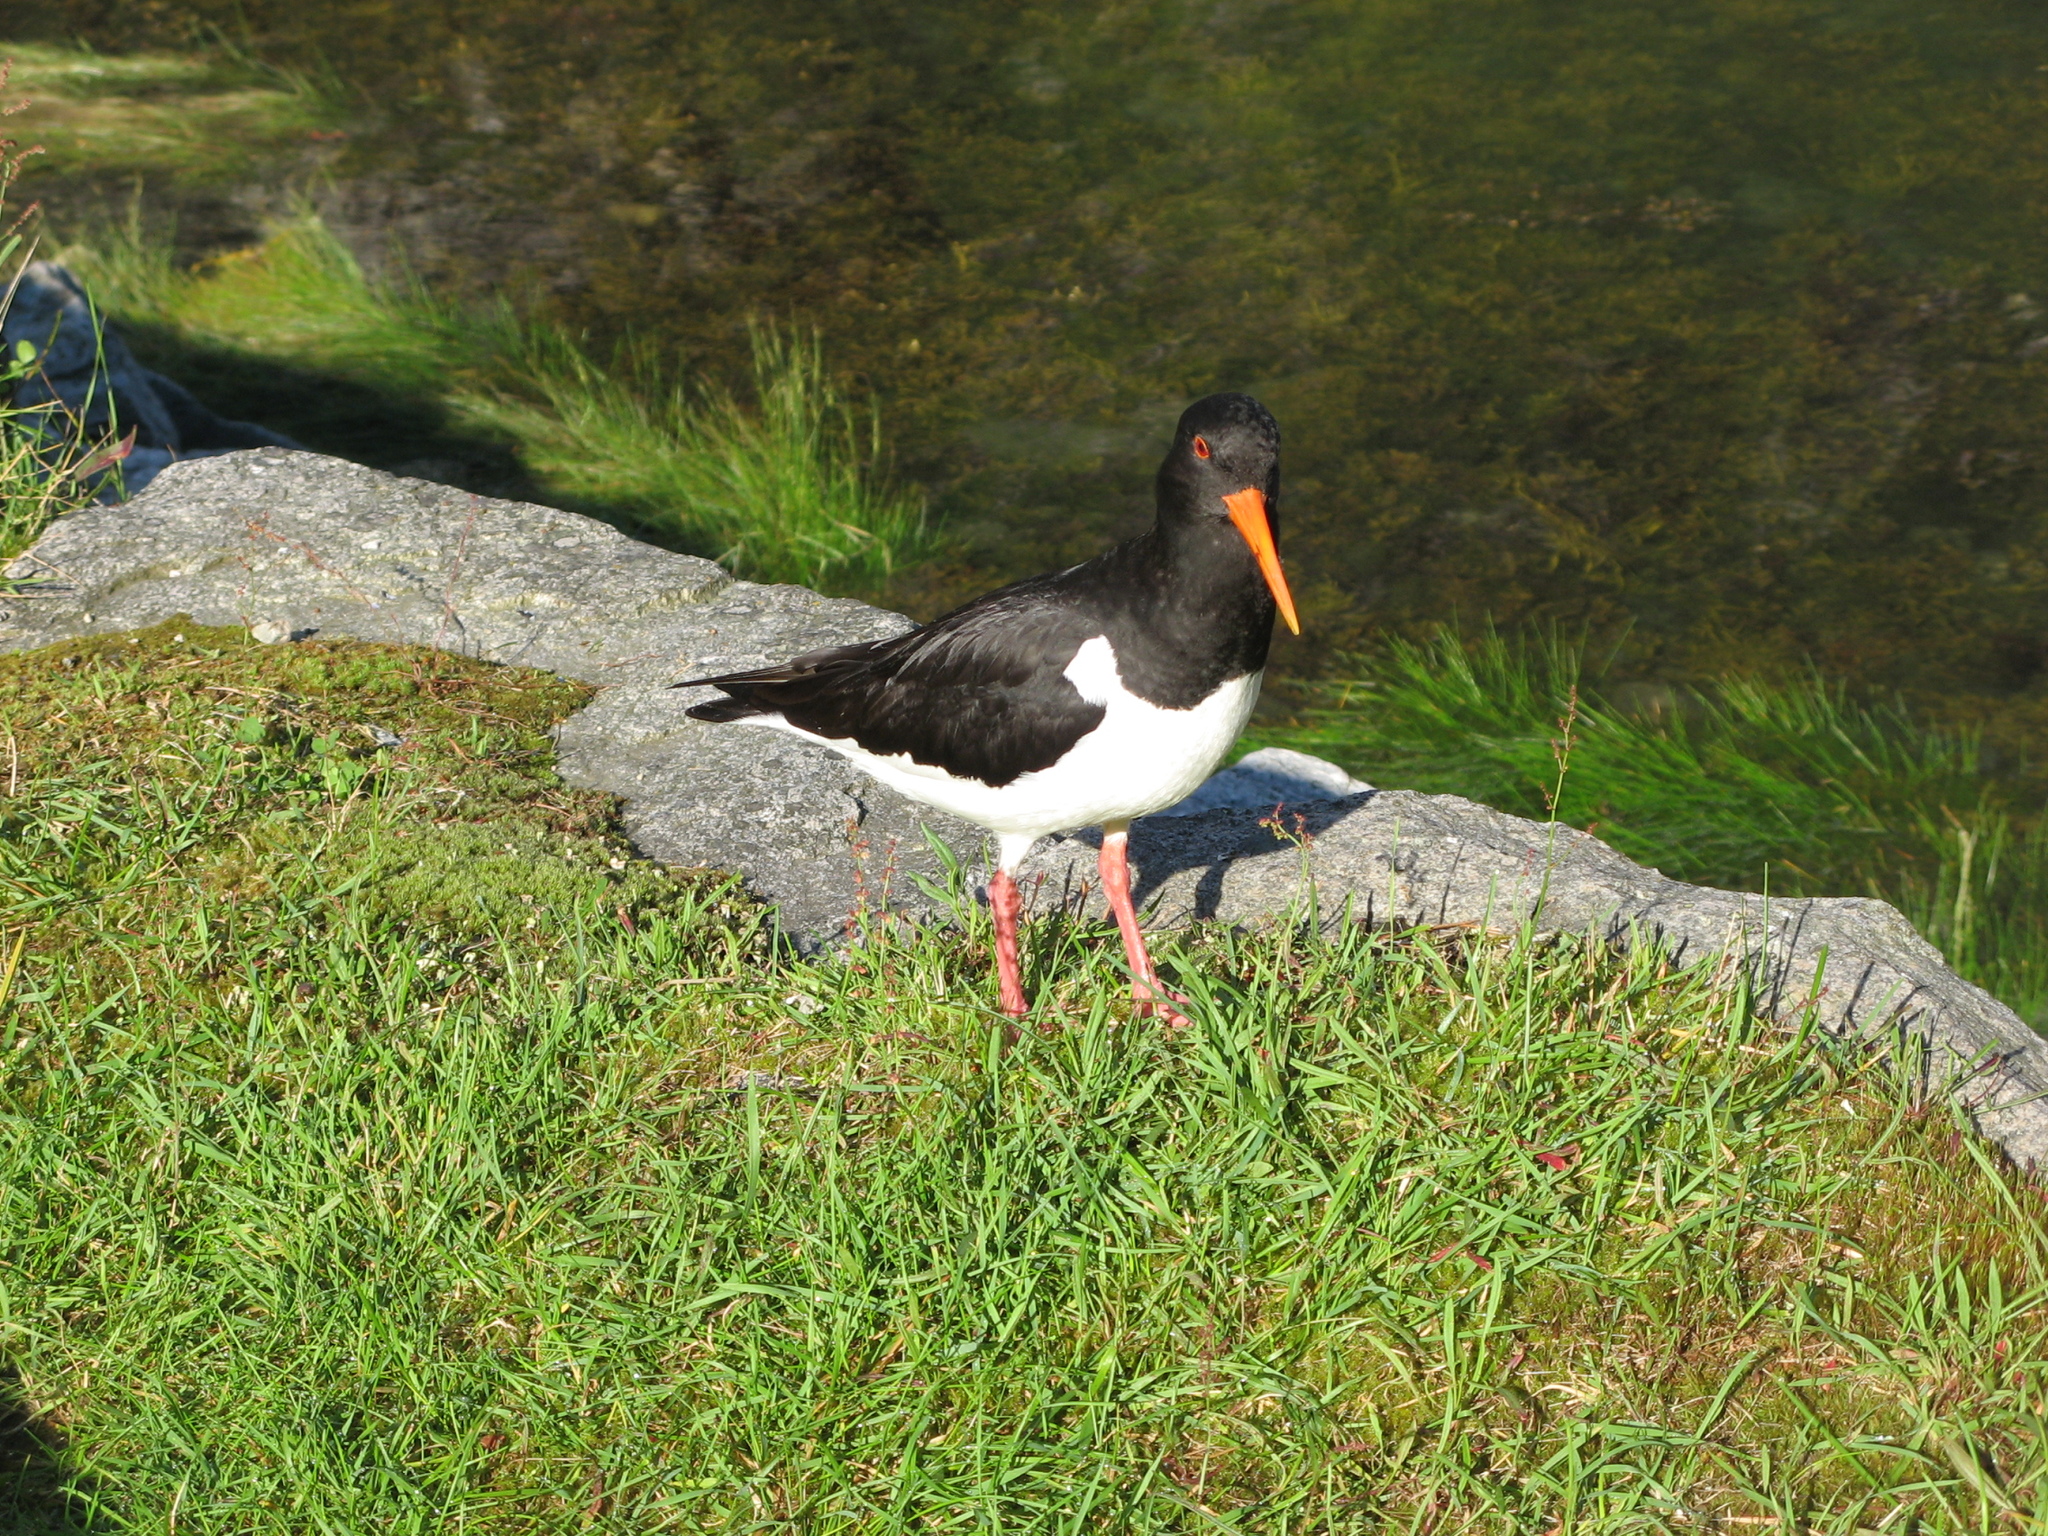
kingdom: Animalia
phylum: Chordata
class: Aves
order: Charadriiformes
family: Haematopodidae
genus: Haematopus
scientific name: Haematopus ostralegus
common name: Eurasian oystercatcher
